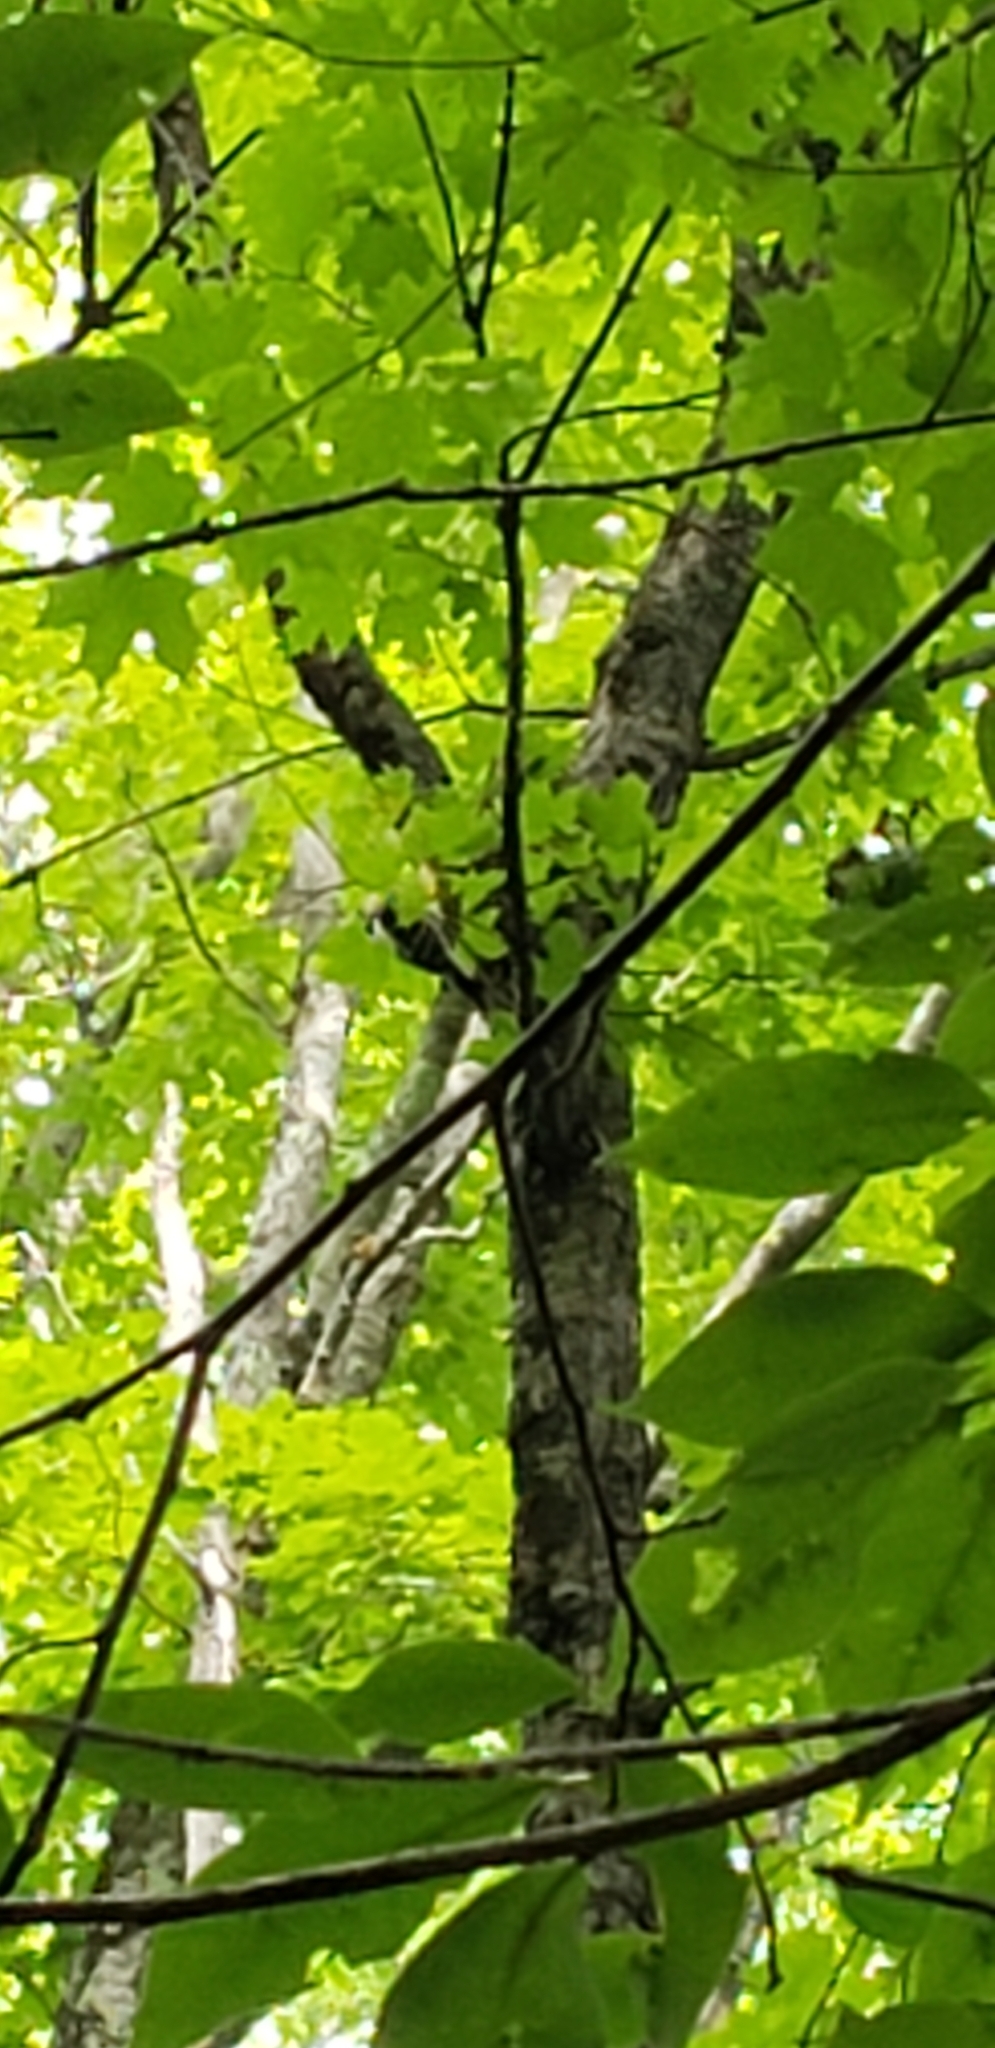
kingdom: Animalia
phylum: Chordata
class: Aves
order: Piciformes
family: Picidae
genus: Leuconotopicus
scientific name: Leuconotopicus villosus
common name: Hairy woodpecker
